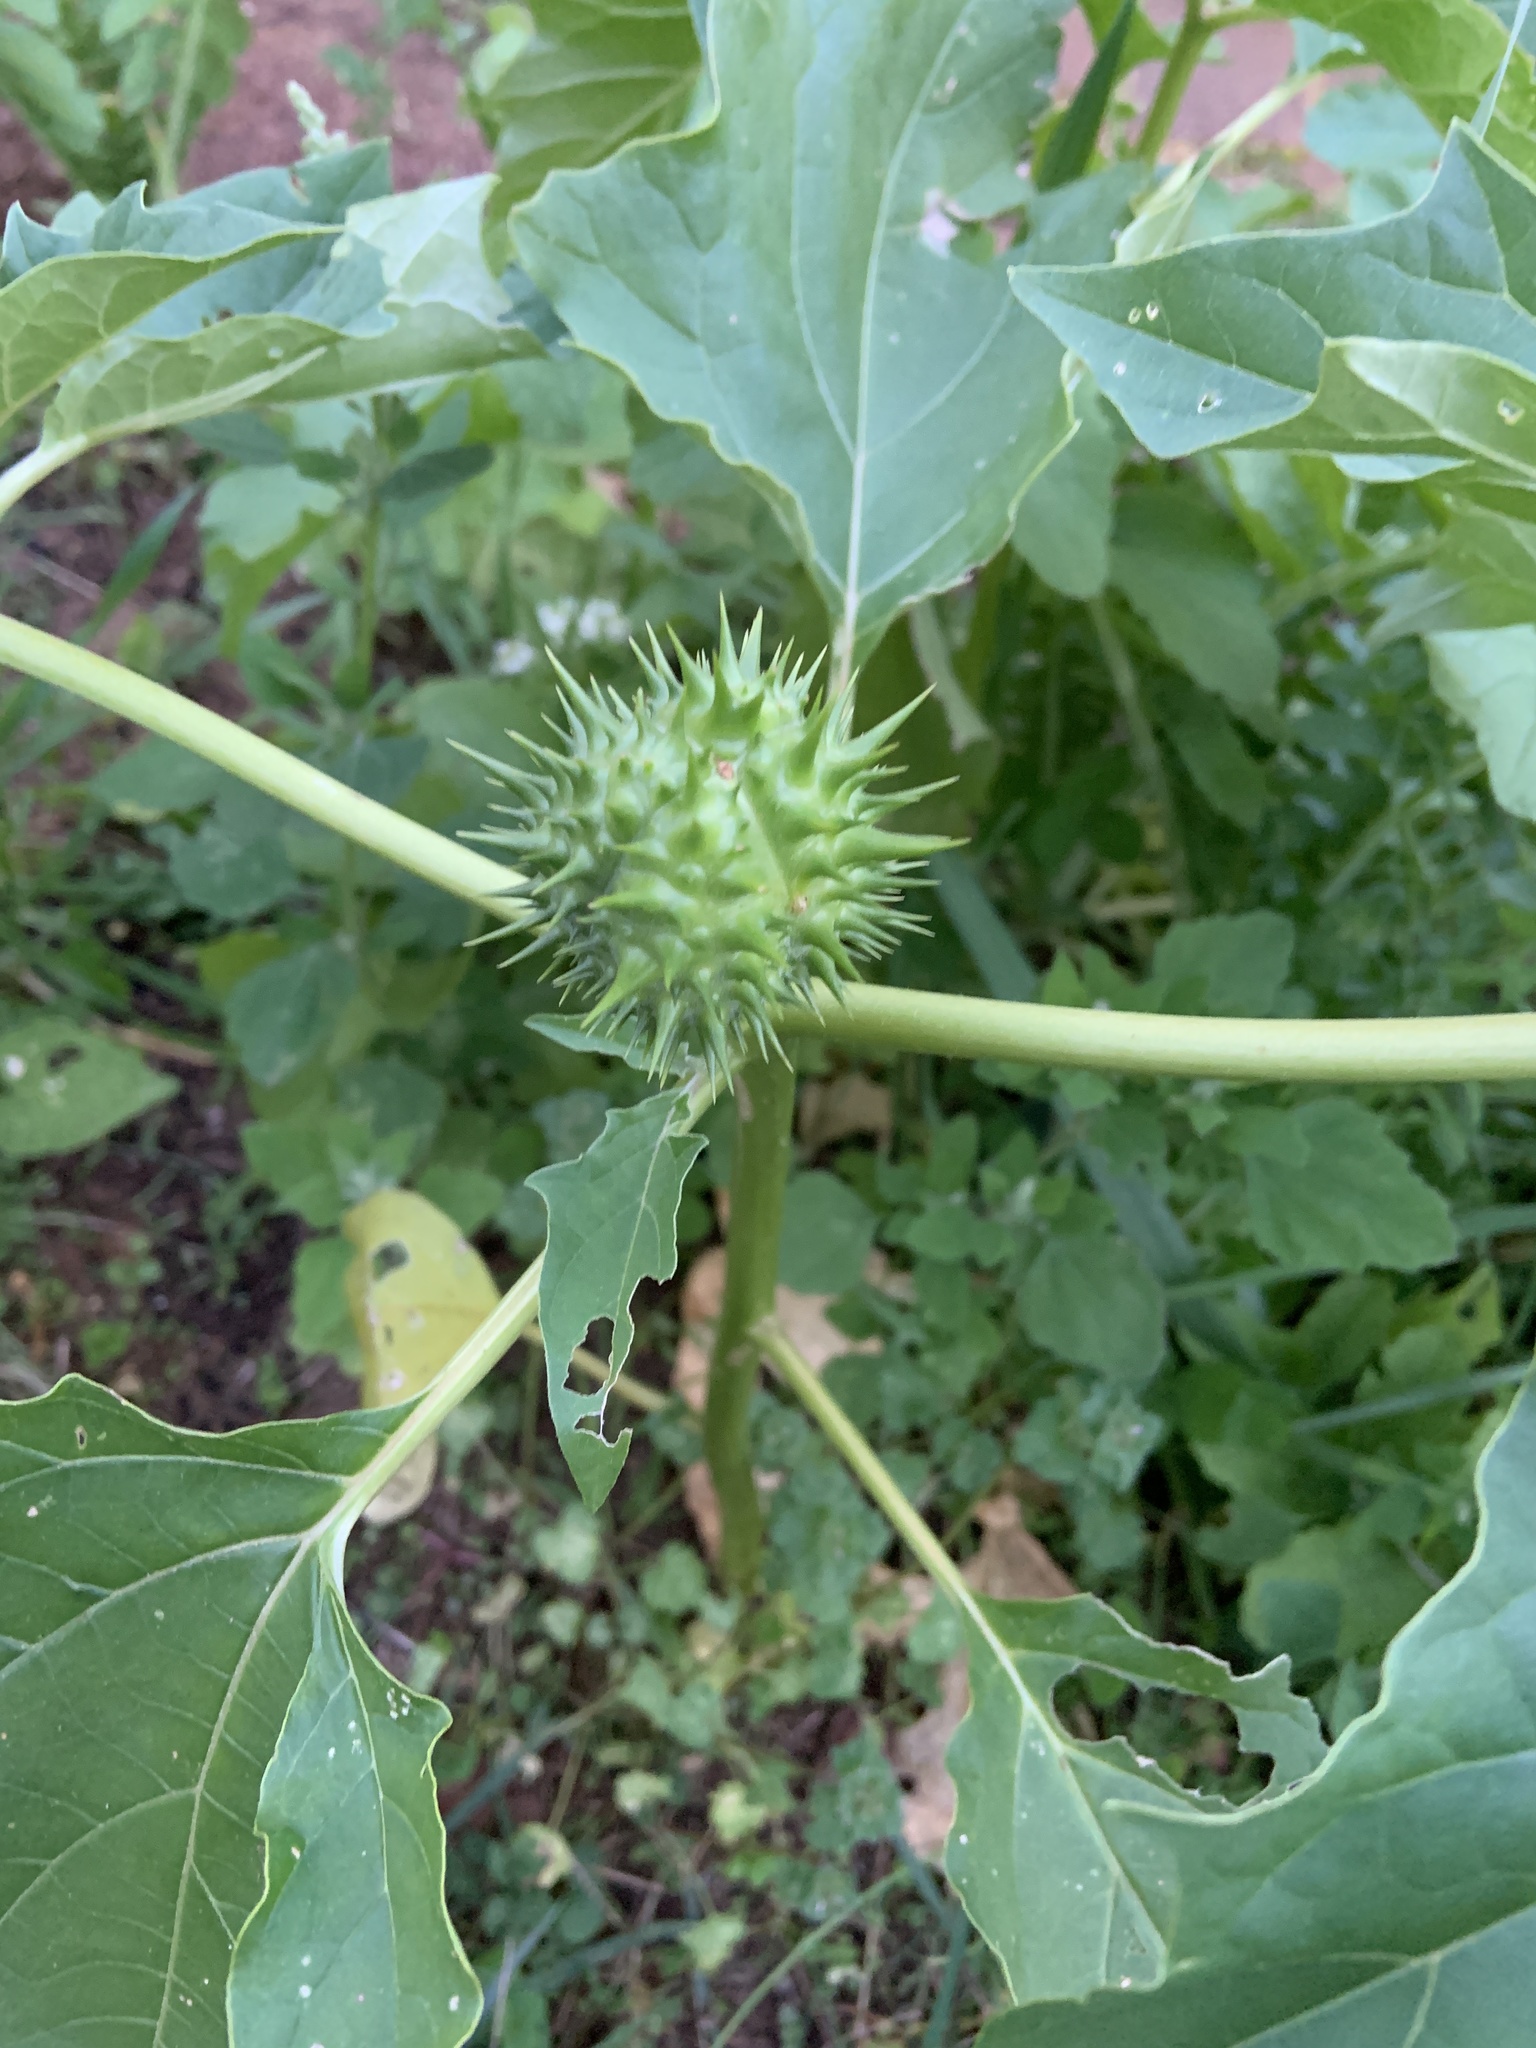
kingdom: Plantae
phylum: Tracheophyta
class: Magnoliopsida
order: Solanales
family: Solanaceae
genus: Datura
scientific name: Datura stramonium
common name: Thorn-apple
